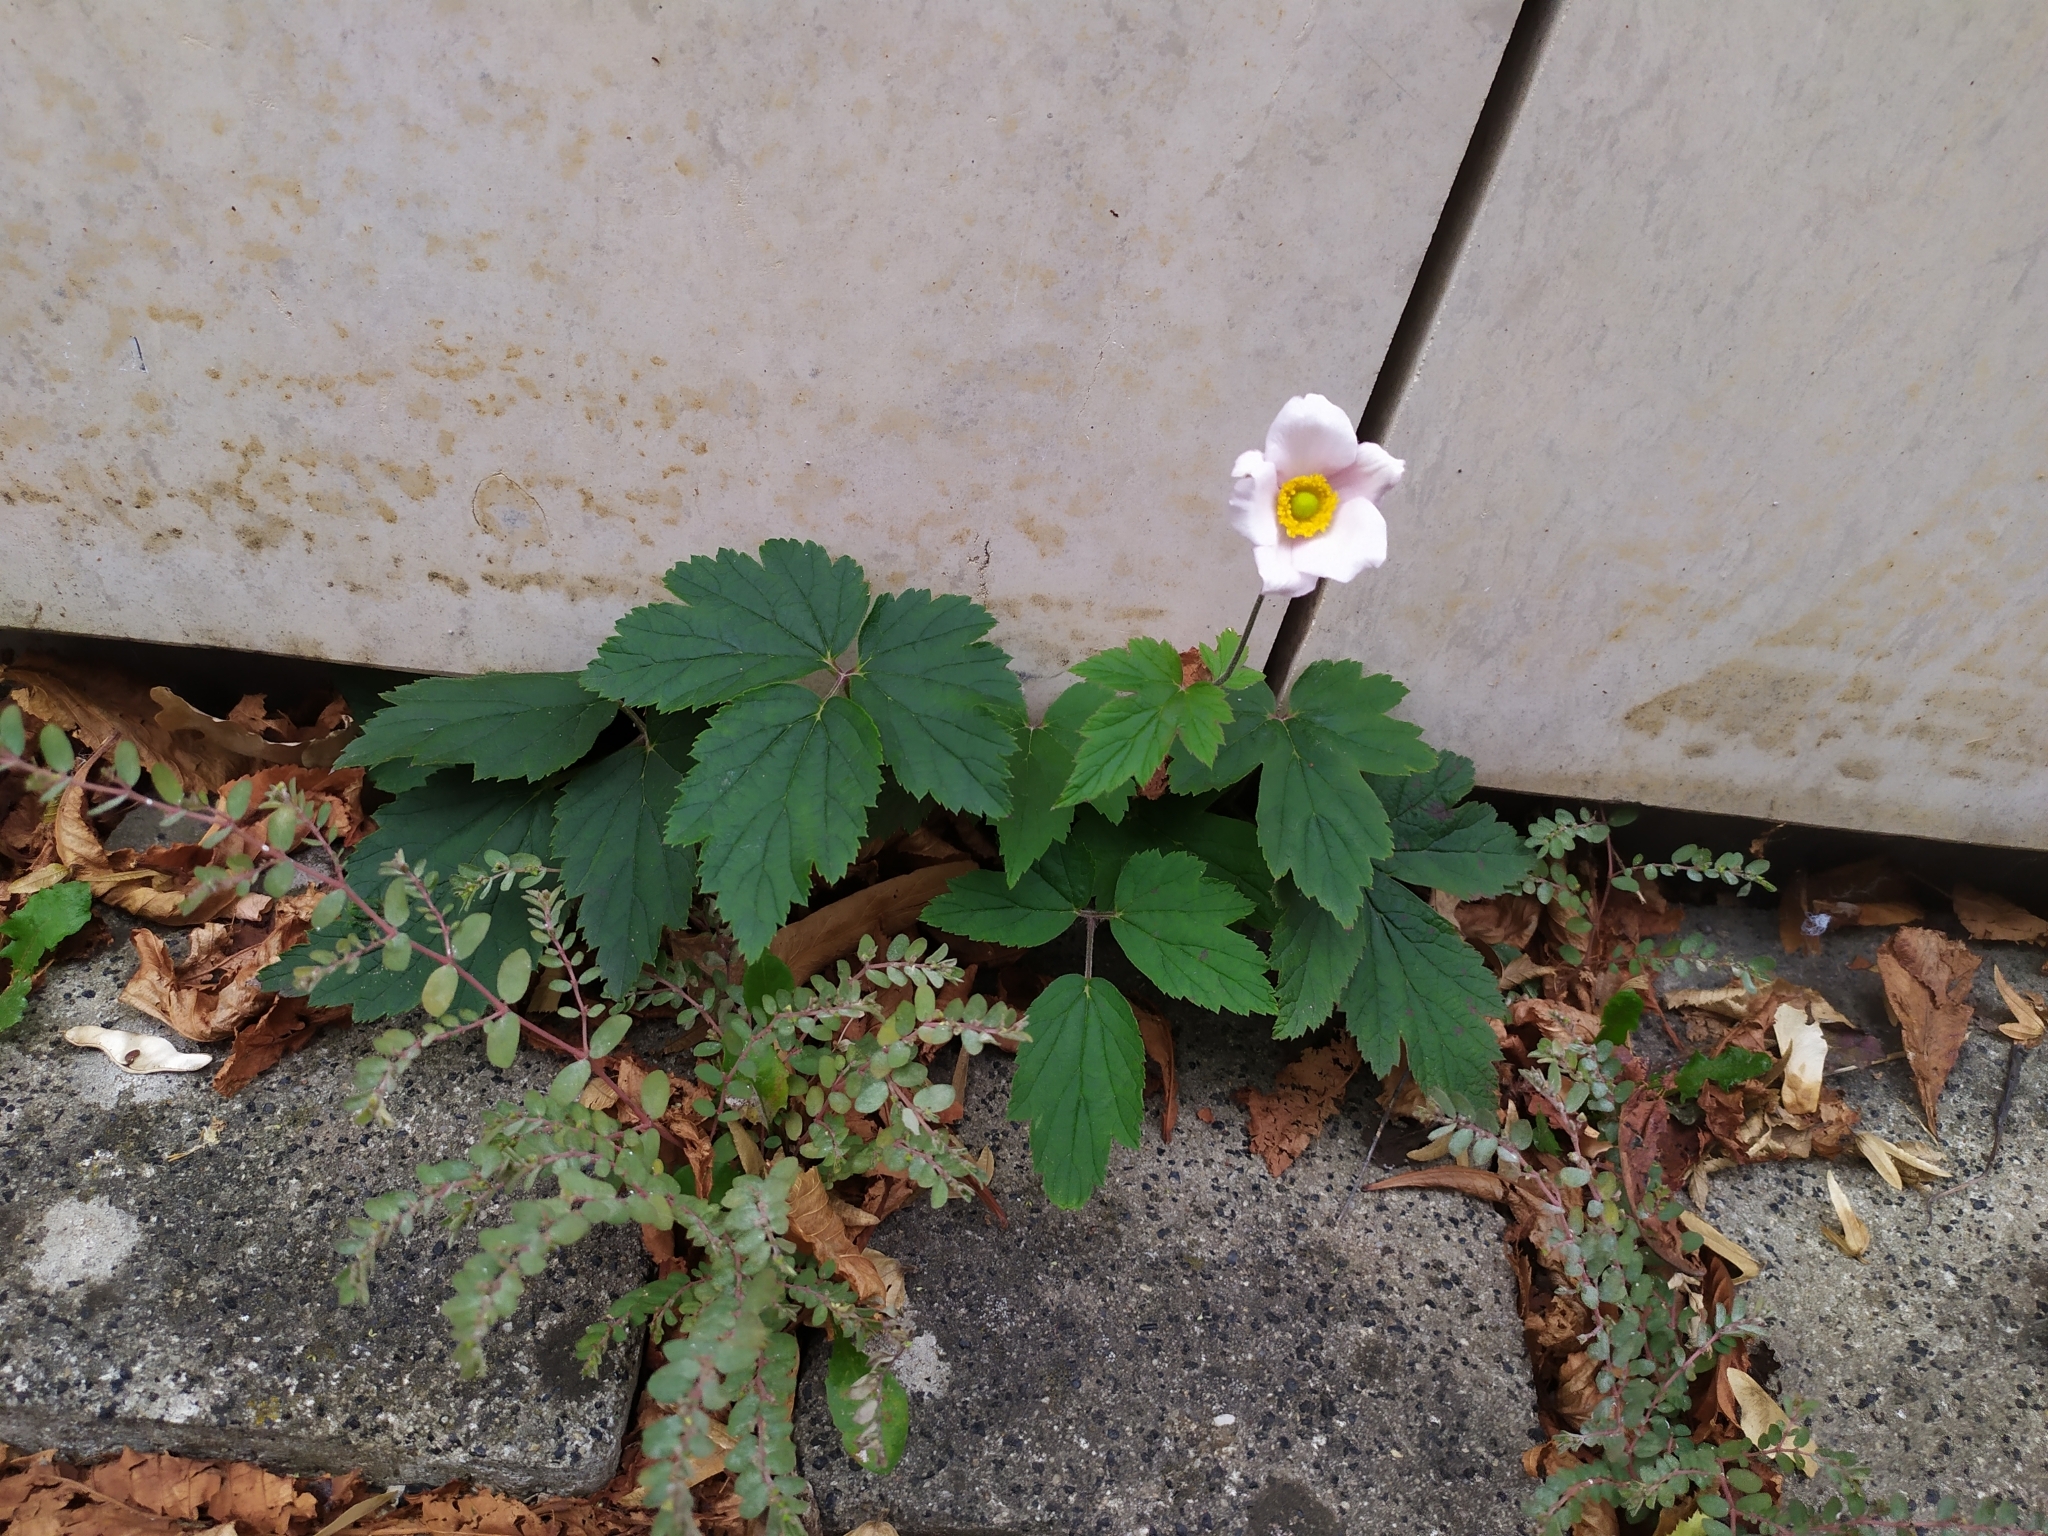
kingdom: Plantae
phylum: Tracheophyta
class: Magnoliopsida
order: Ranunculales
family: Ranunculaceae
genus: Eriocapitella
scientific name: Eriocapitella hybrida
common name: Japanese anemone
